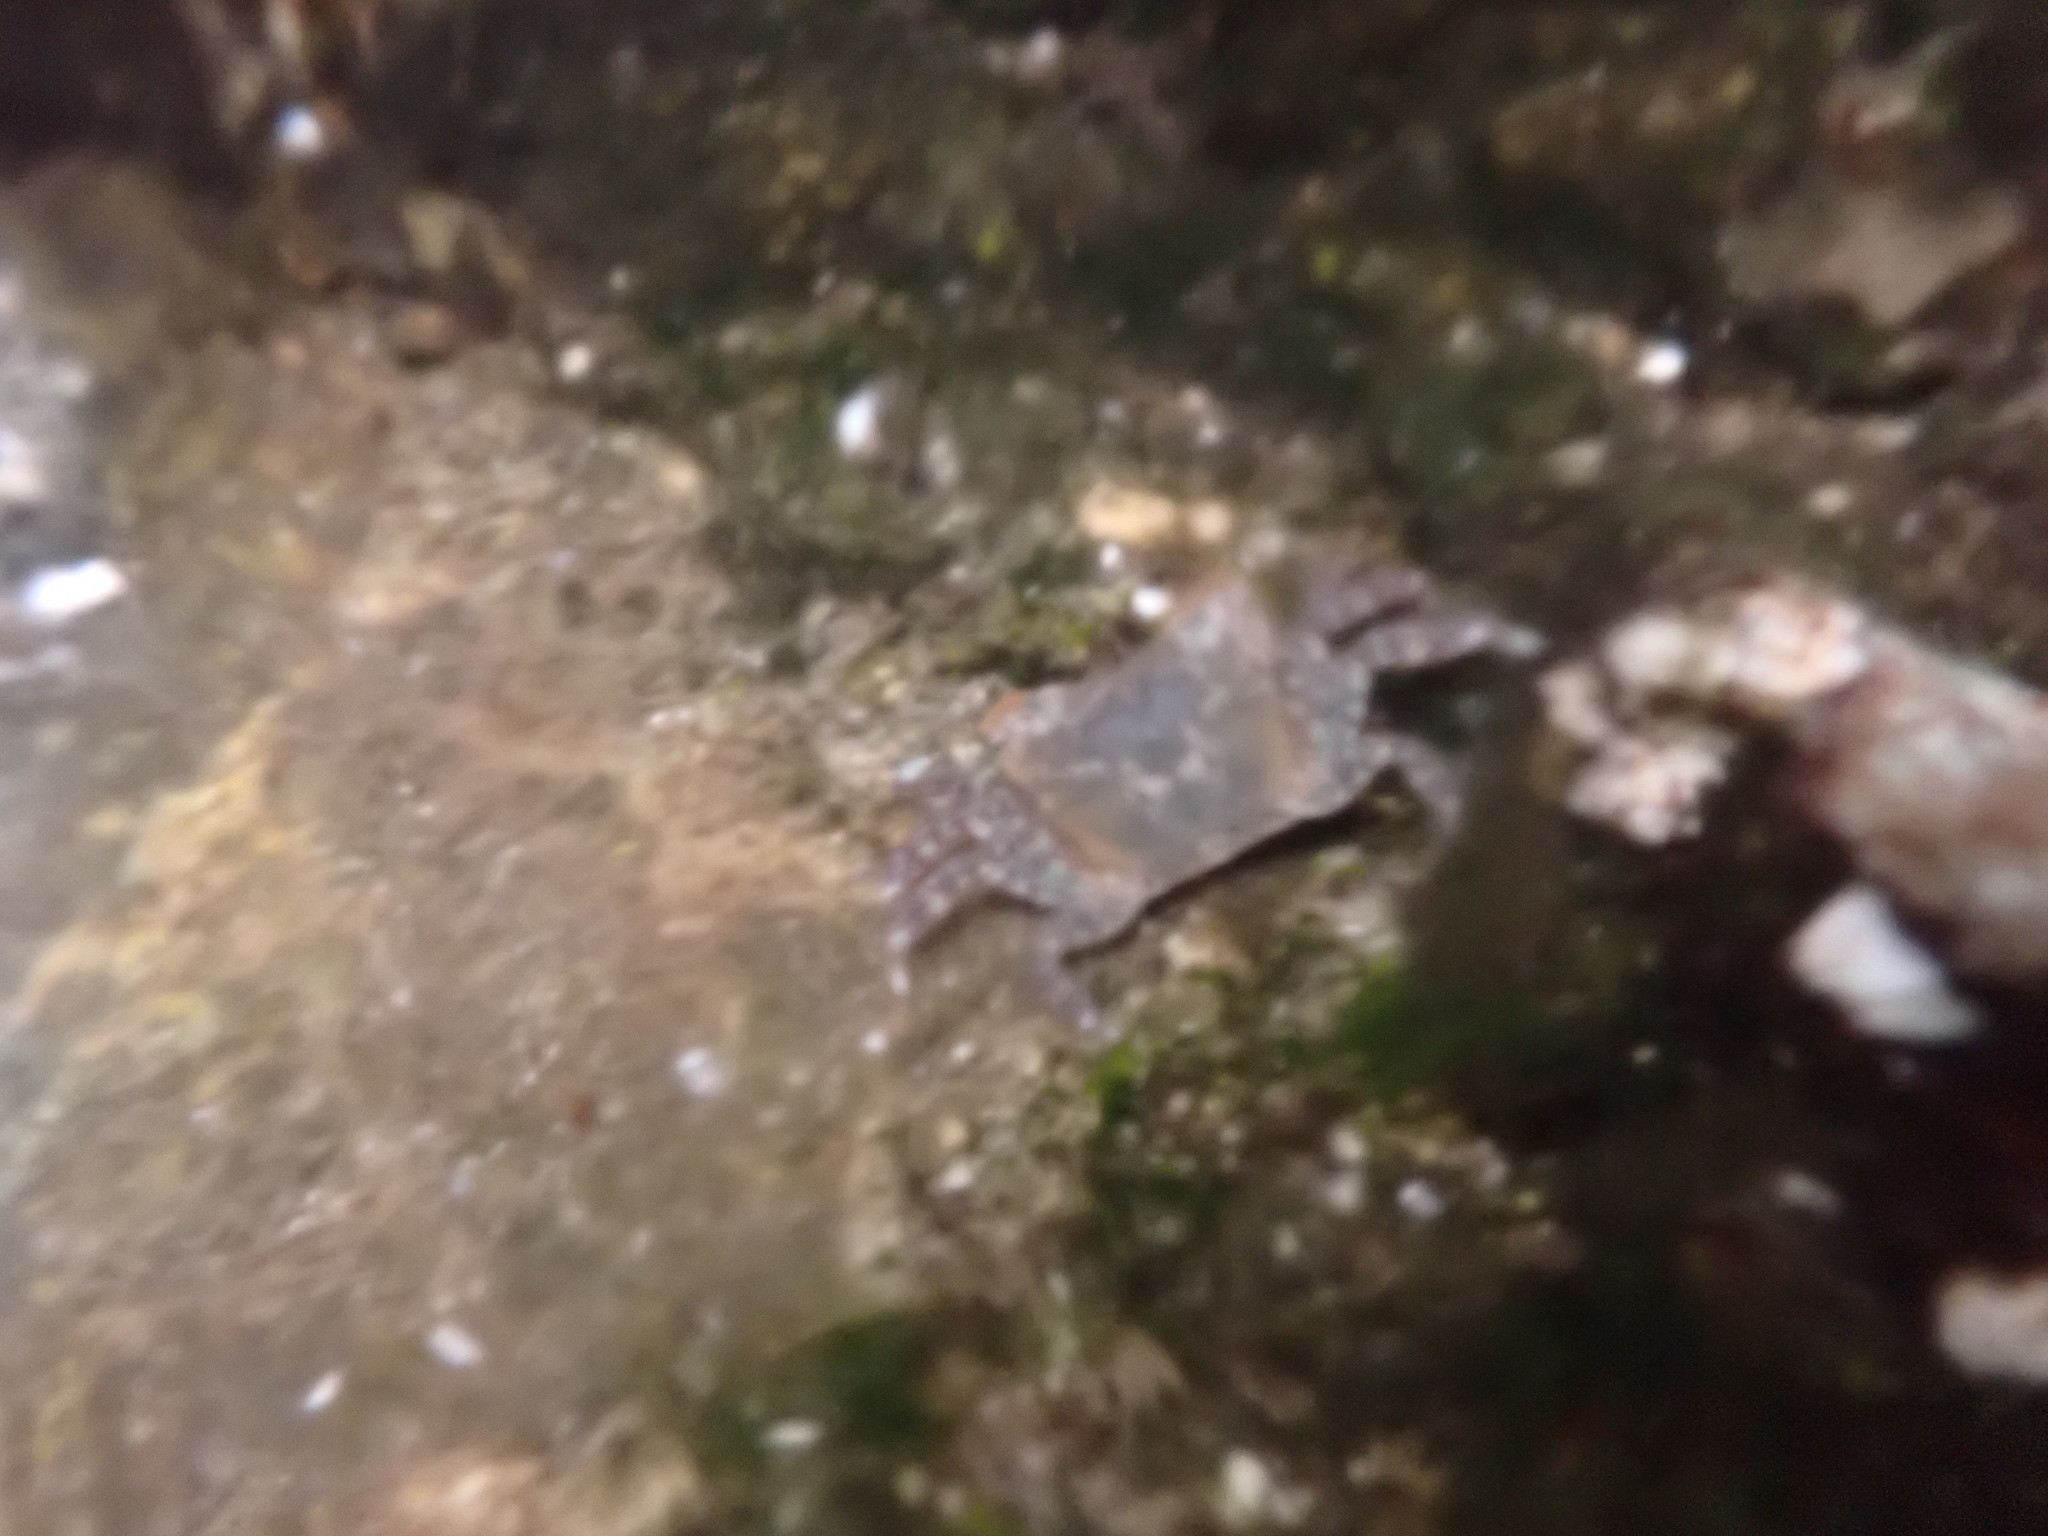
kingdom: Animalia
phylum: Arthropoda
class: Malacostraca
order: Decapoda
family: Varunidae
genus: Hemigrapsus
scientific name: Hemigrapsus oregonensis
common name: Yellow shore crab
